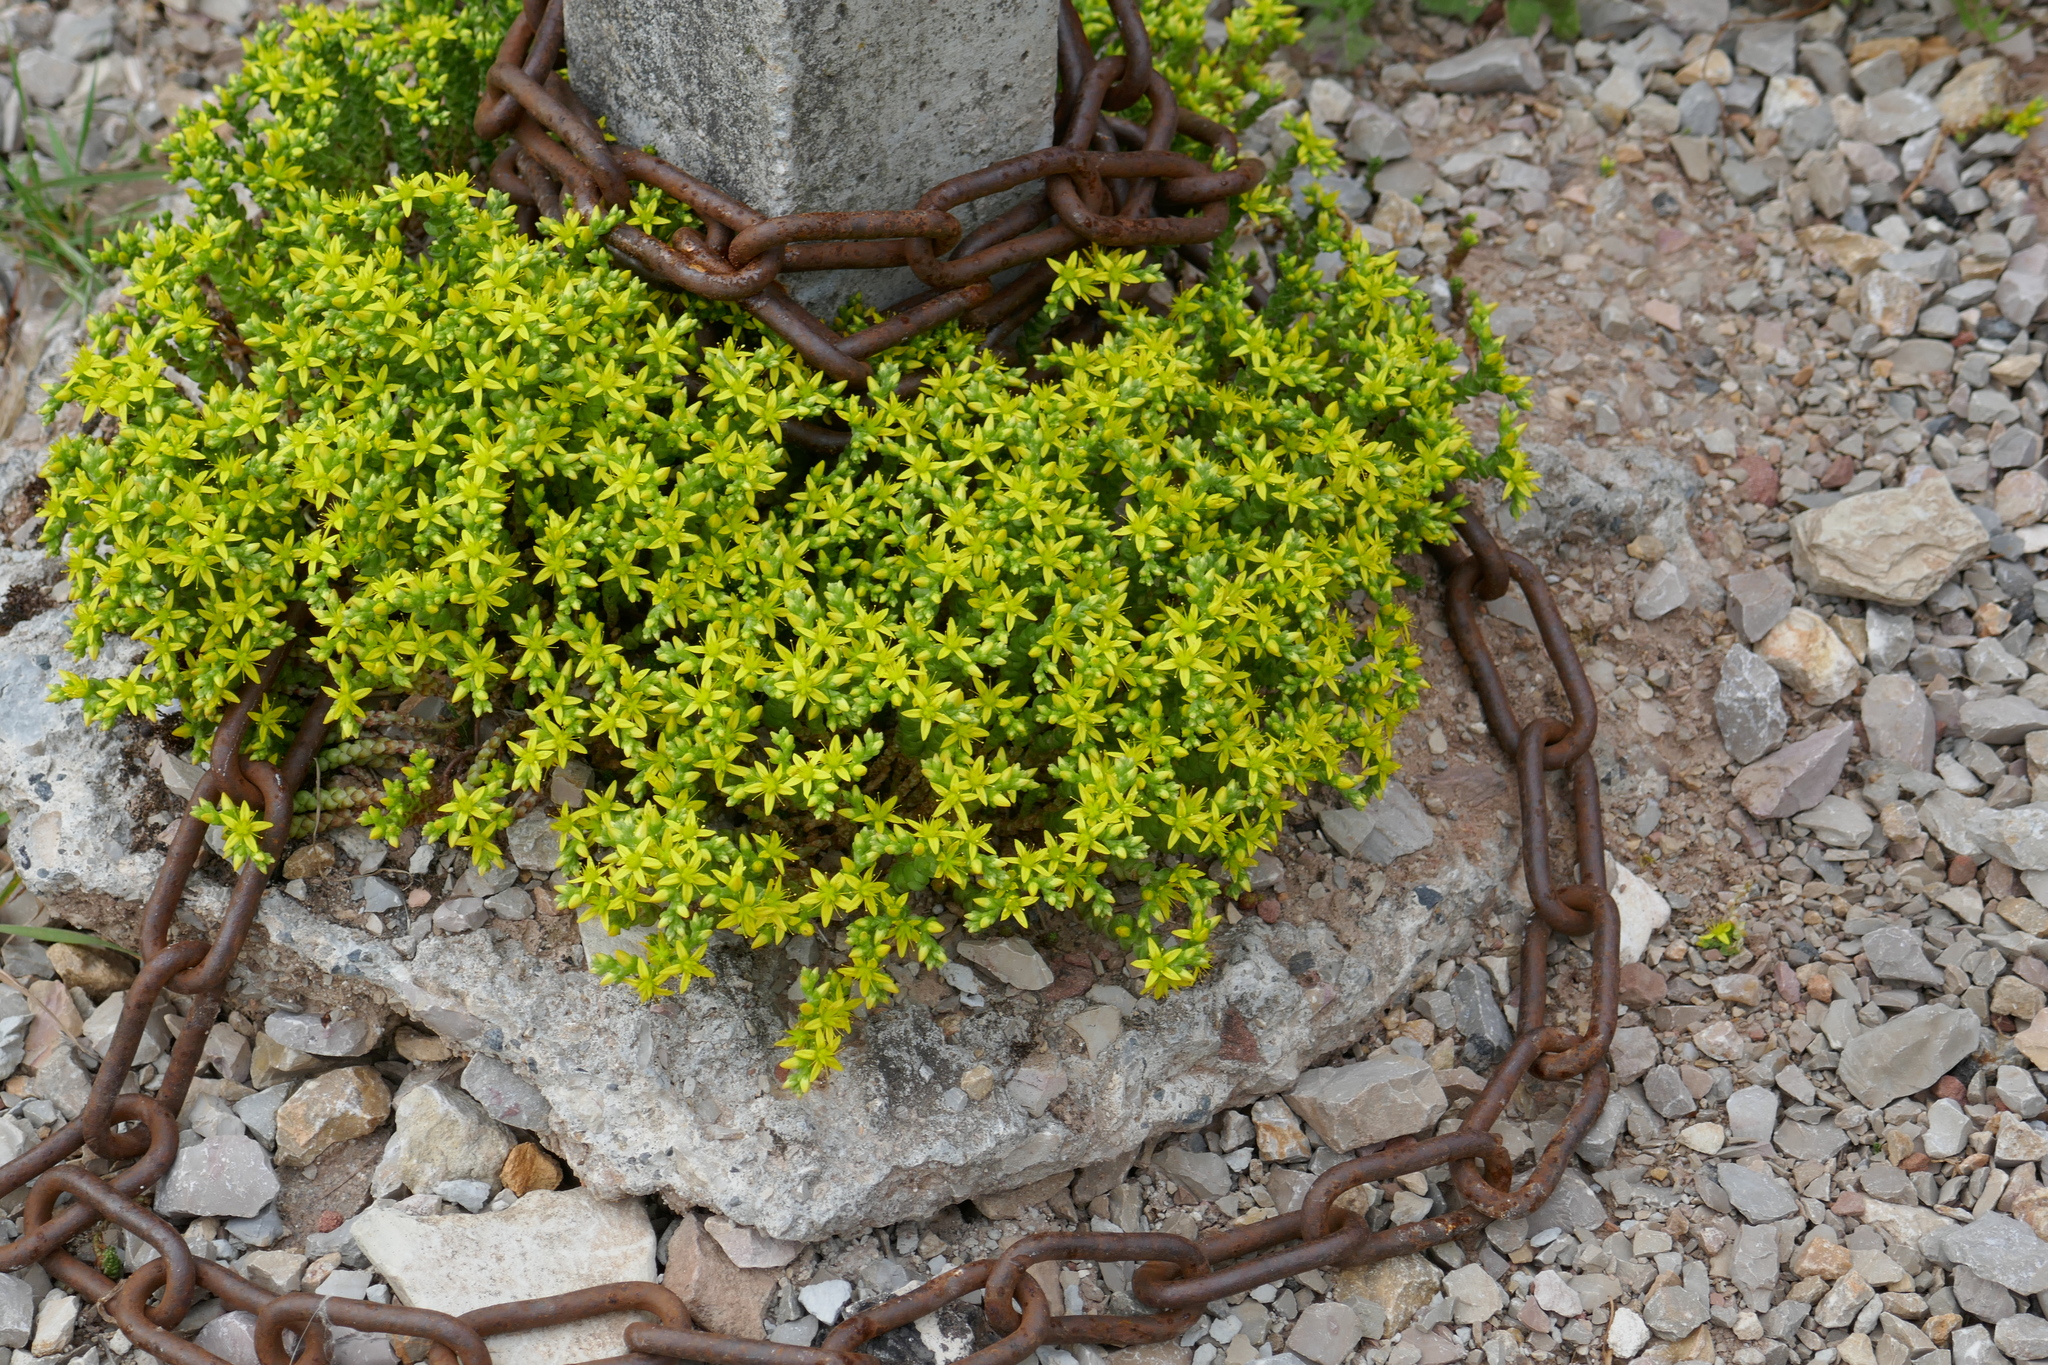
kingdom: Plantae
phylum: Tracheophyta
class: Magnoliopsida
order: Saxifragales
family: Crassulaceae
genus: Sedum
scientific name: Sedum acre
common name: Biting stonecrop
